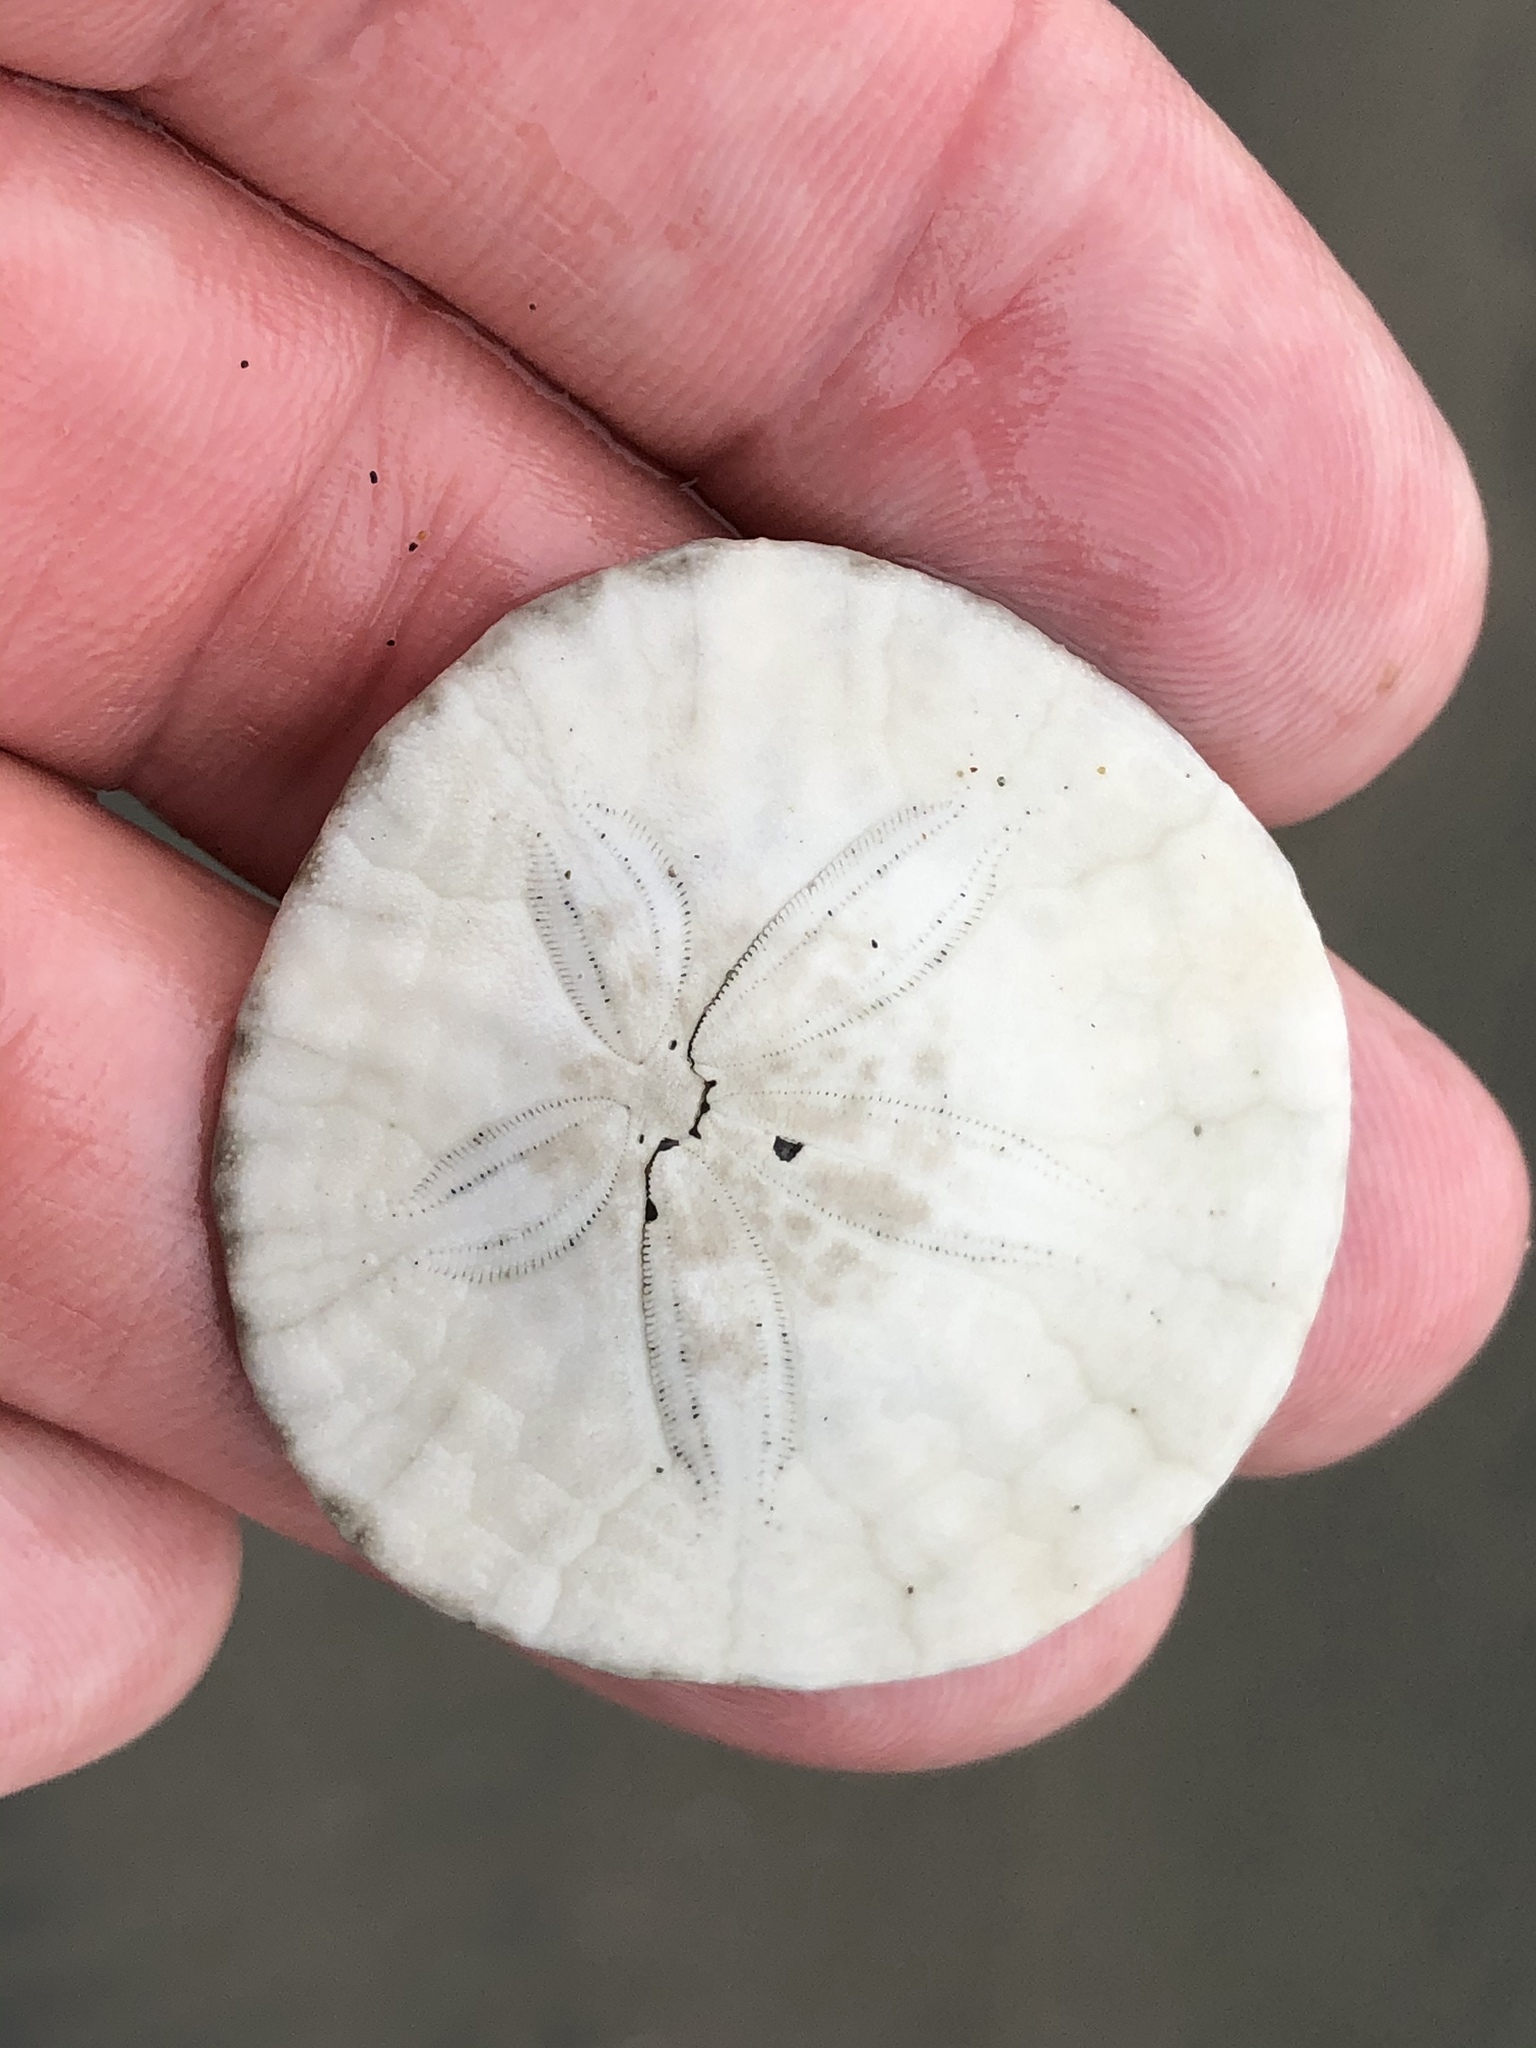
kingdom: Animalia
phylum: Echinodermata
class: Echinoidea
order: Echinolampadacea
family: Dendrasteridae
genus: Dendraster
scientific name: Dendraster excentricus
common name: Eccentric sand dollar sea urchin
